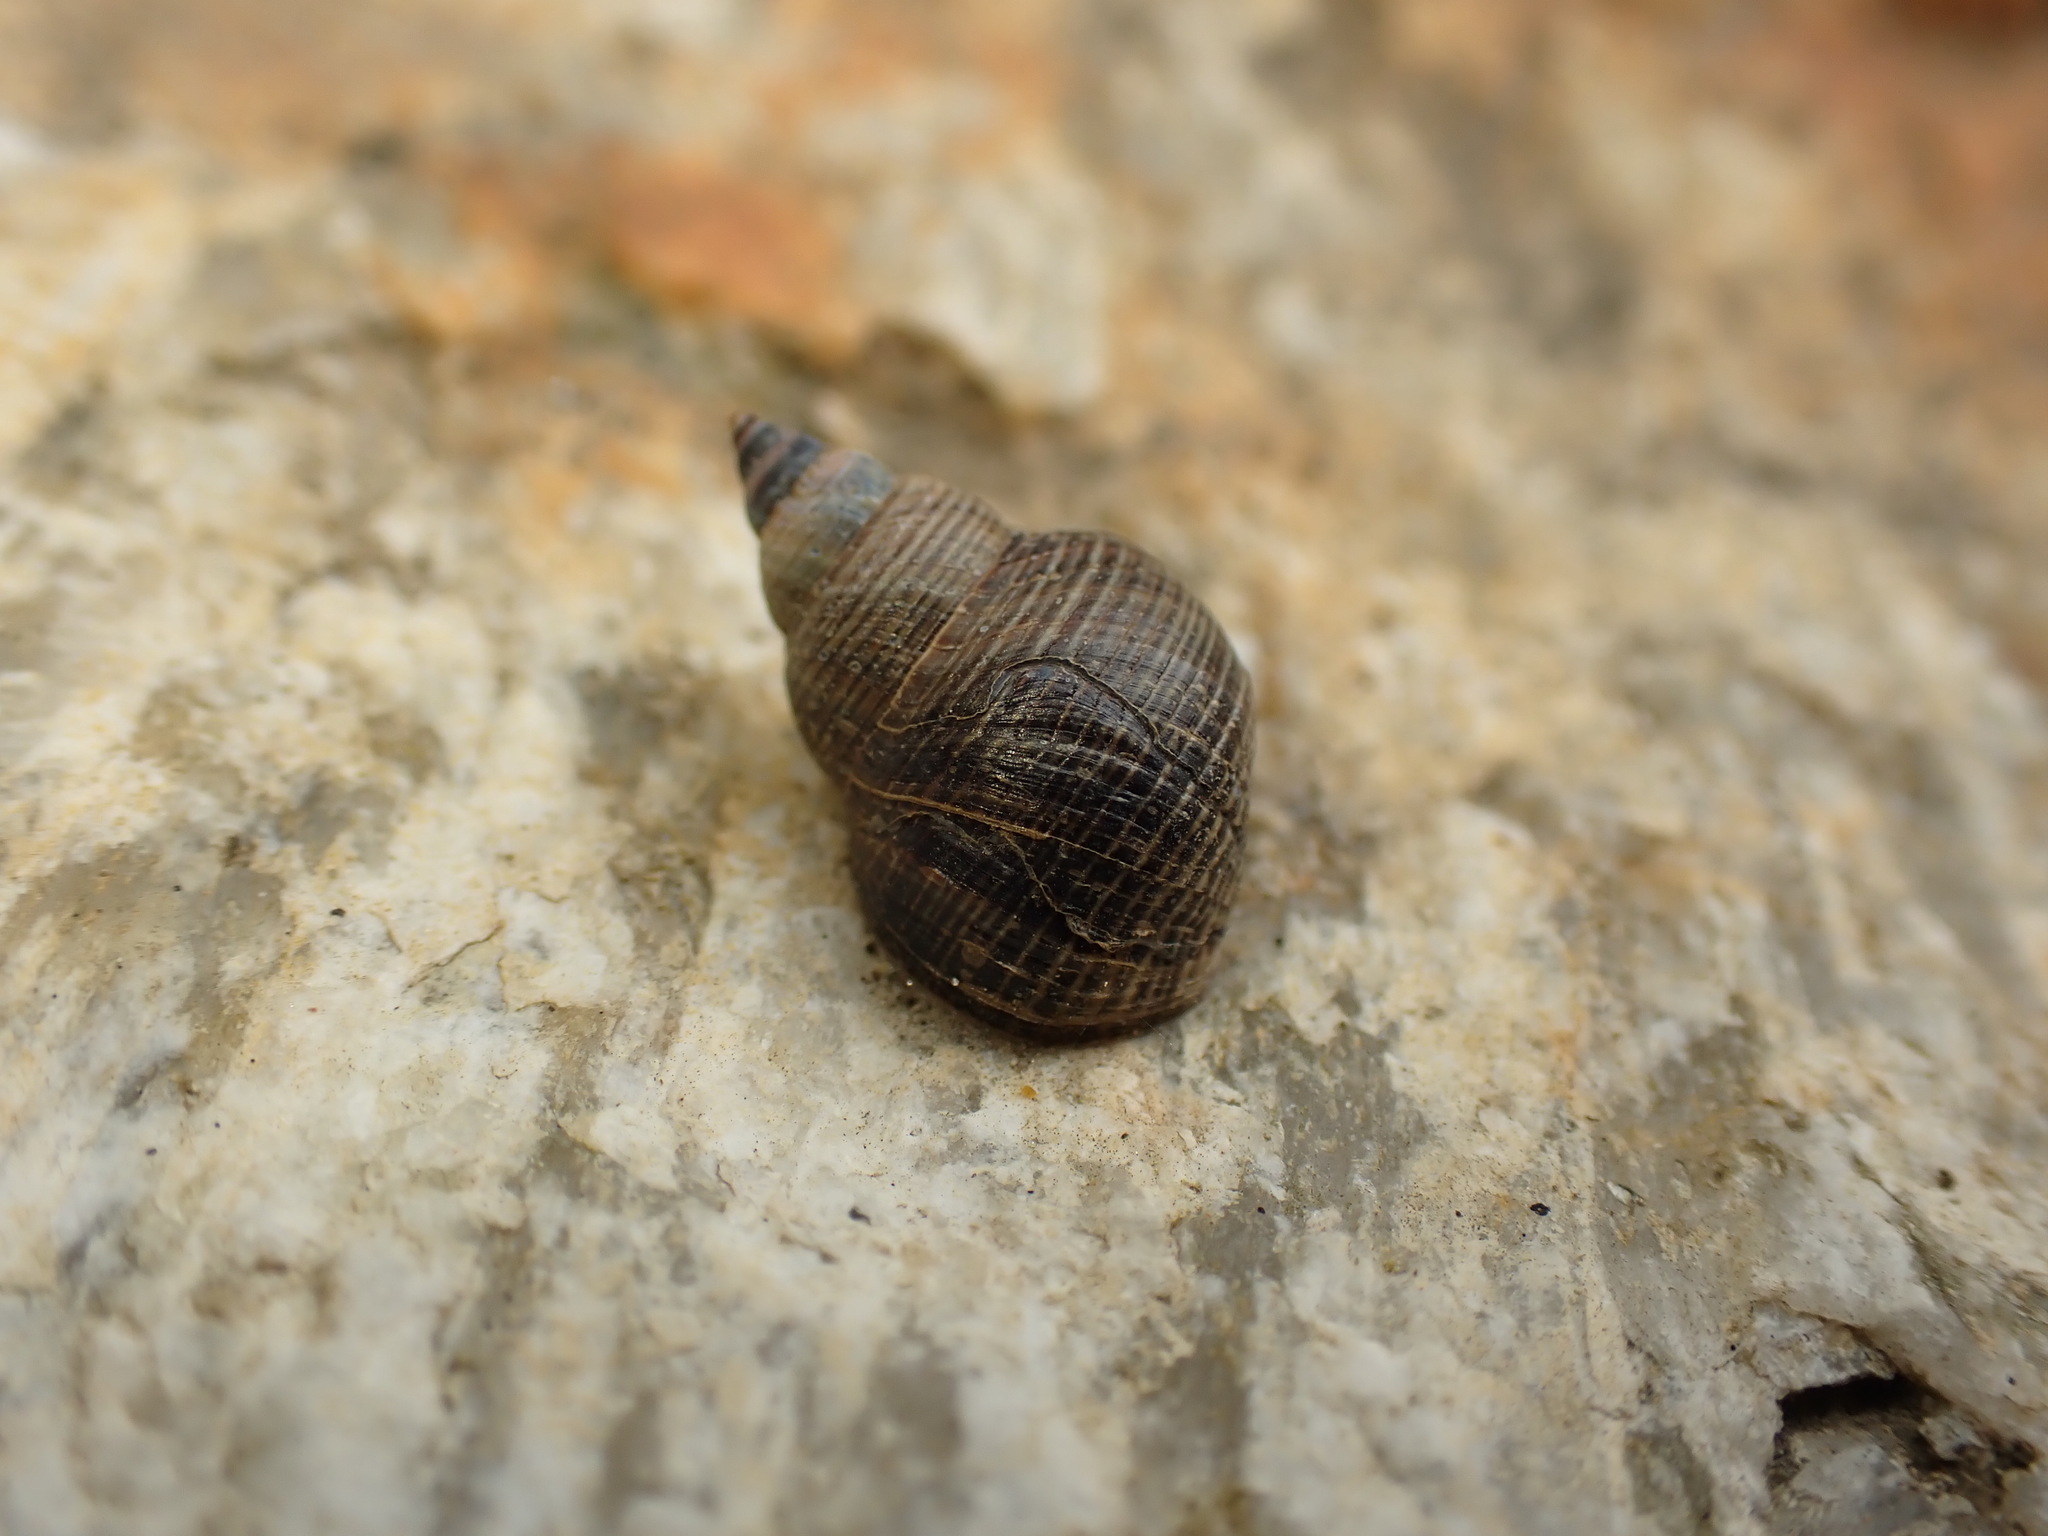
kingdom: Animalia
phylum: Mollusca
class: Gastropoda
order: Littorinimorpha
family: Littorinidae
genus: Austrolittorina
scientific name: Austrolittorina cincta
